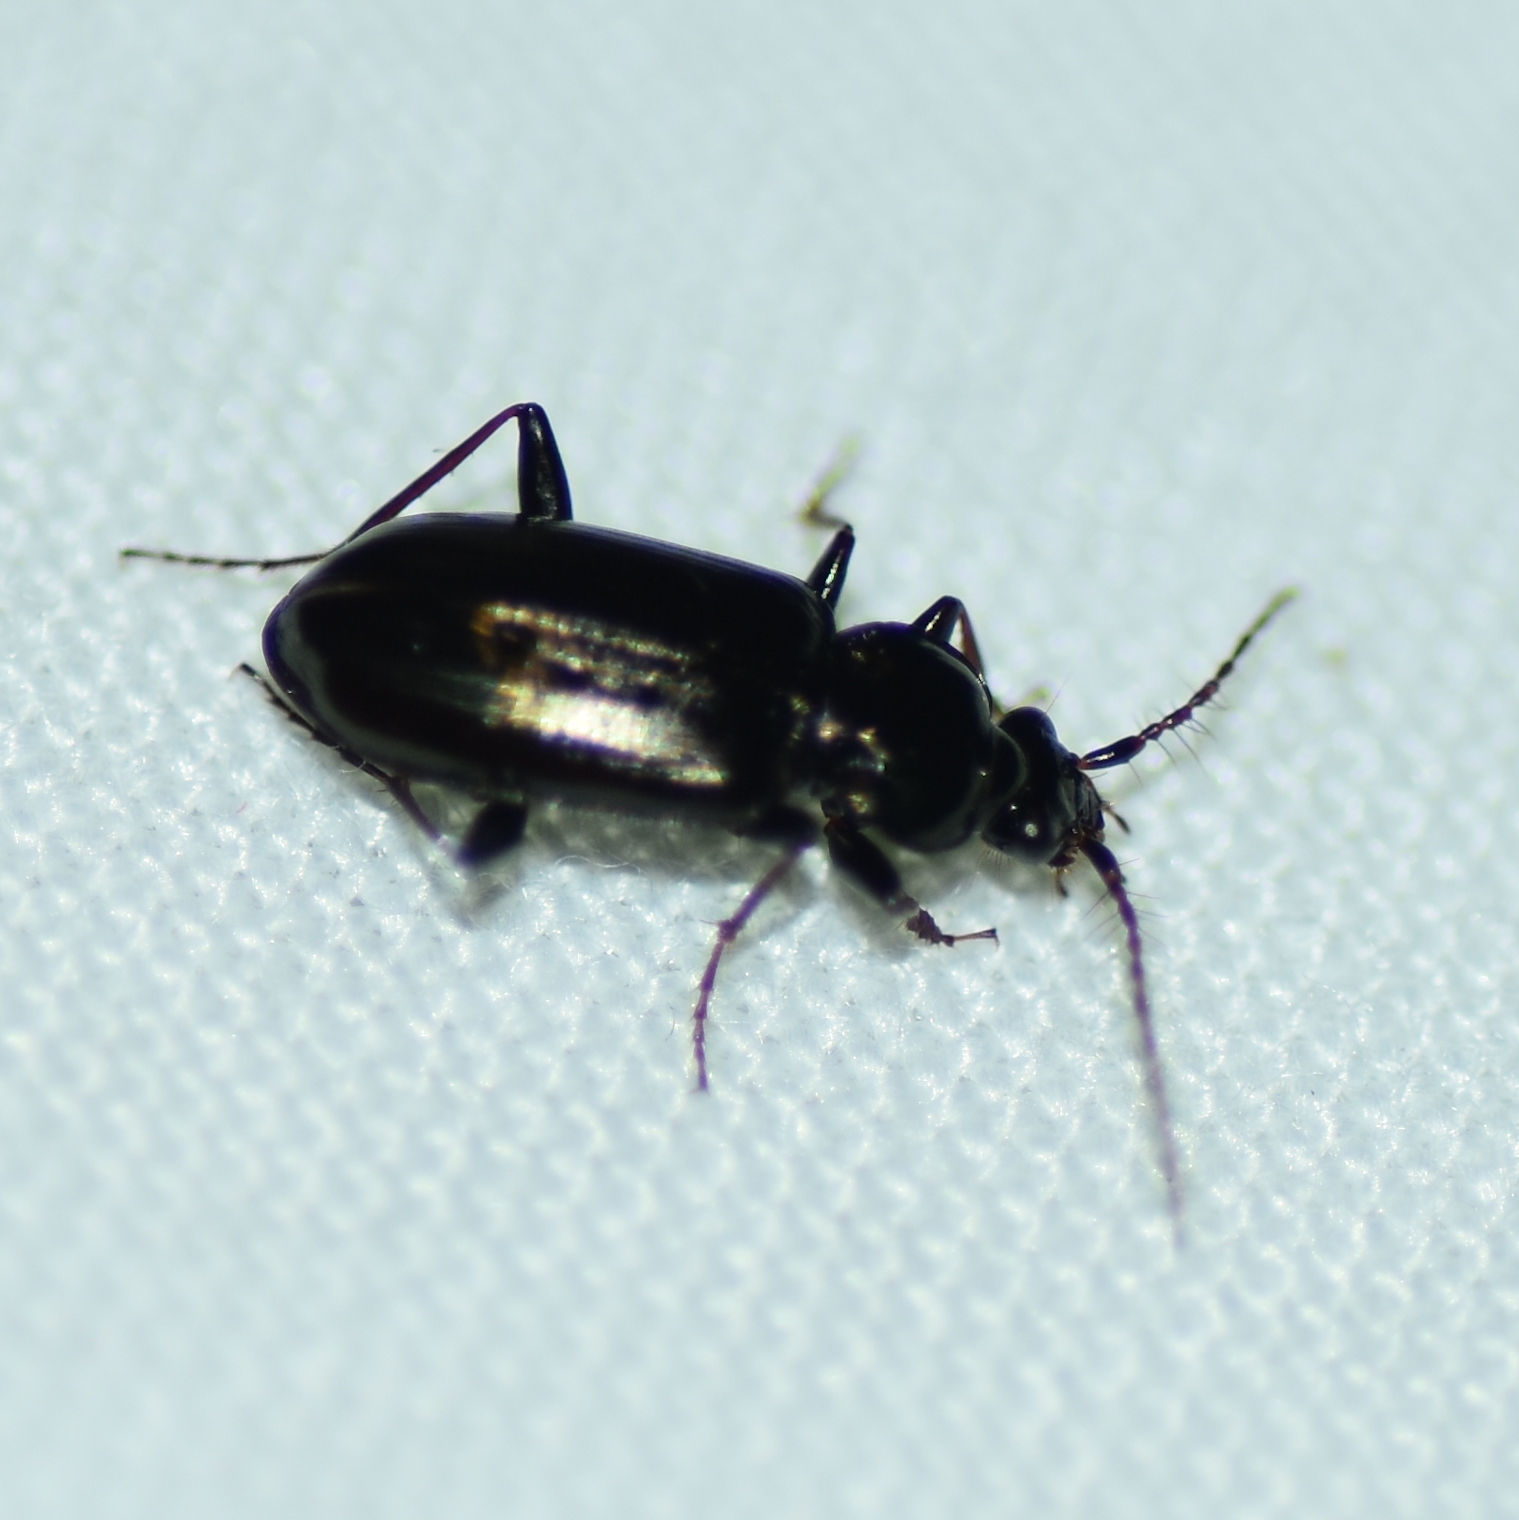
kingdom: Animalia
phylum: Arthropoda
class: Insecta
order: Coleoptera
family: Carabidae
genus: Loricera
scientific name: Loricera pilicornis
